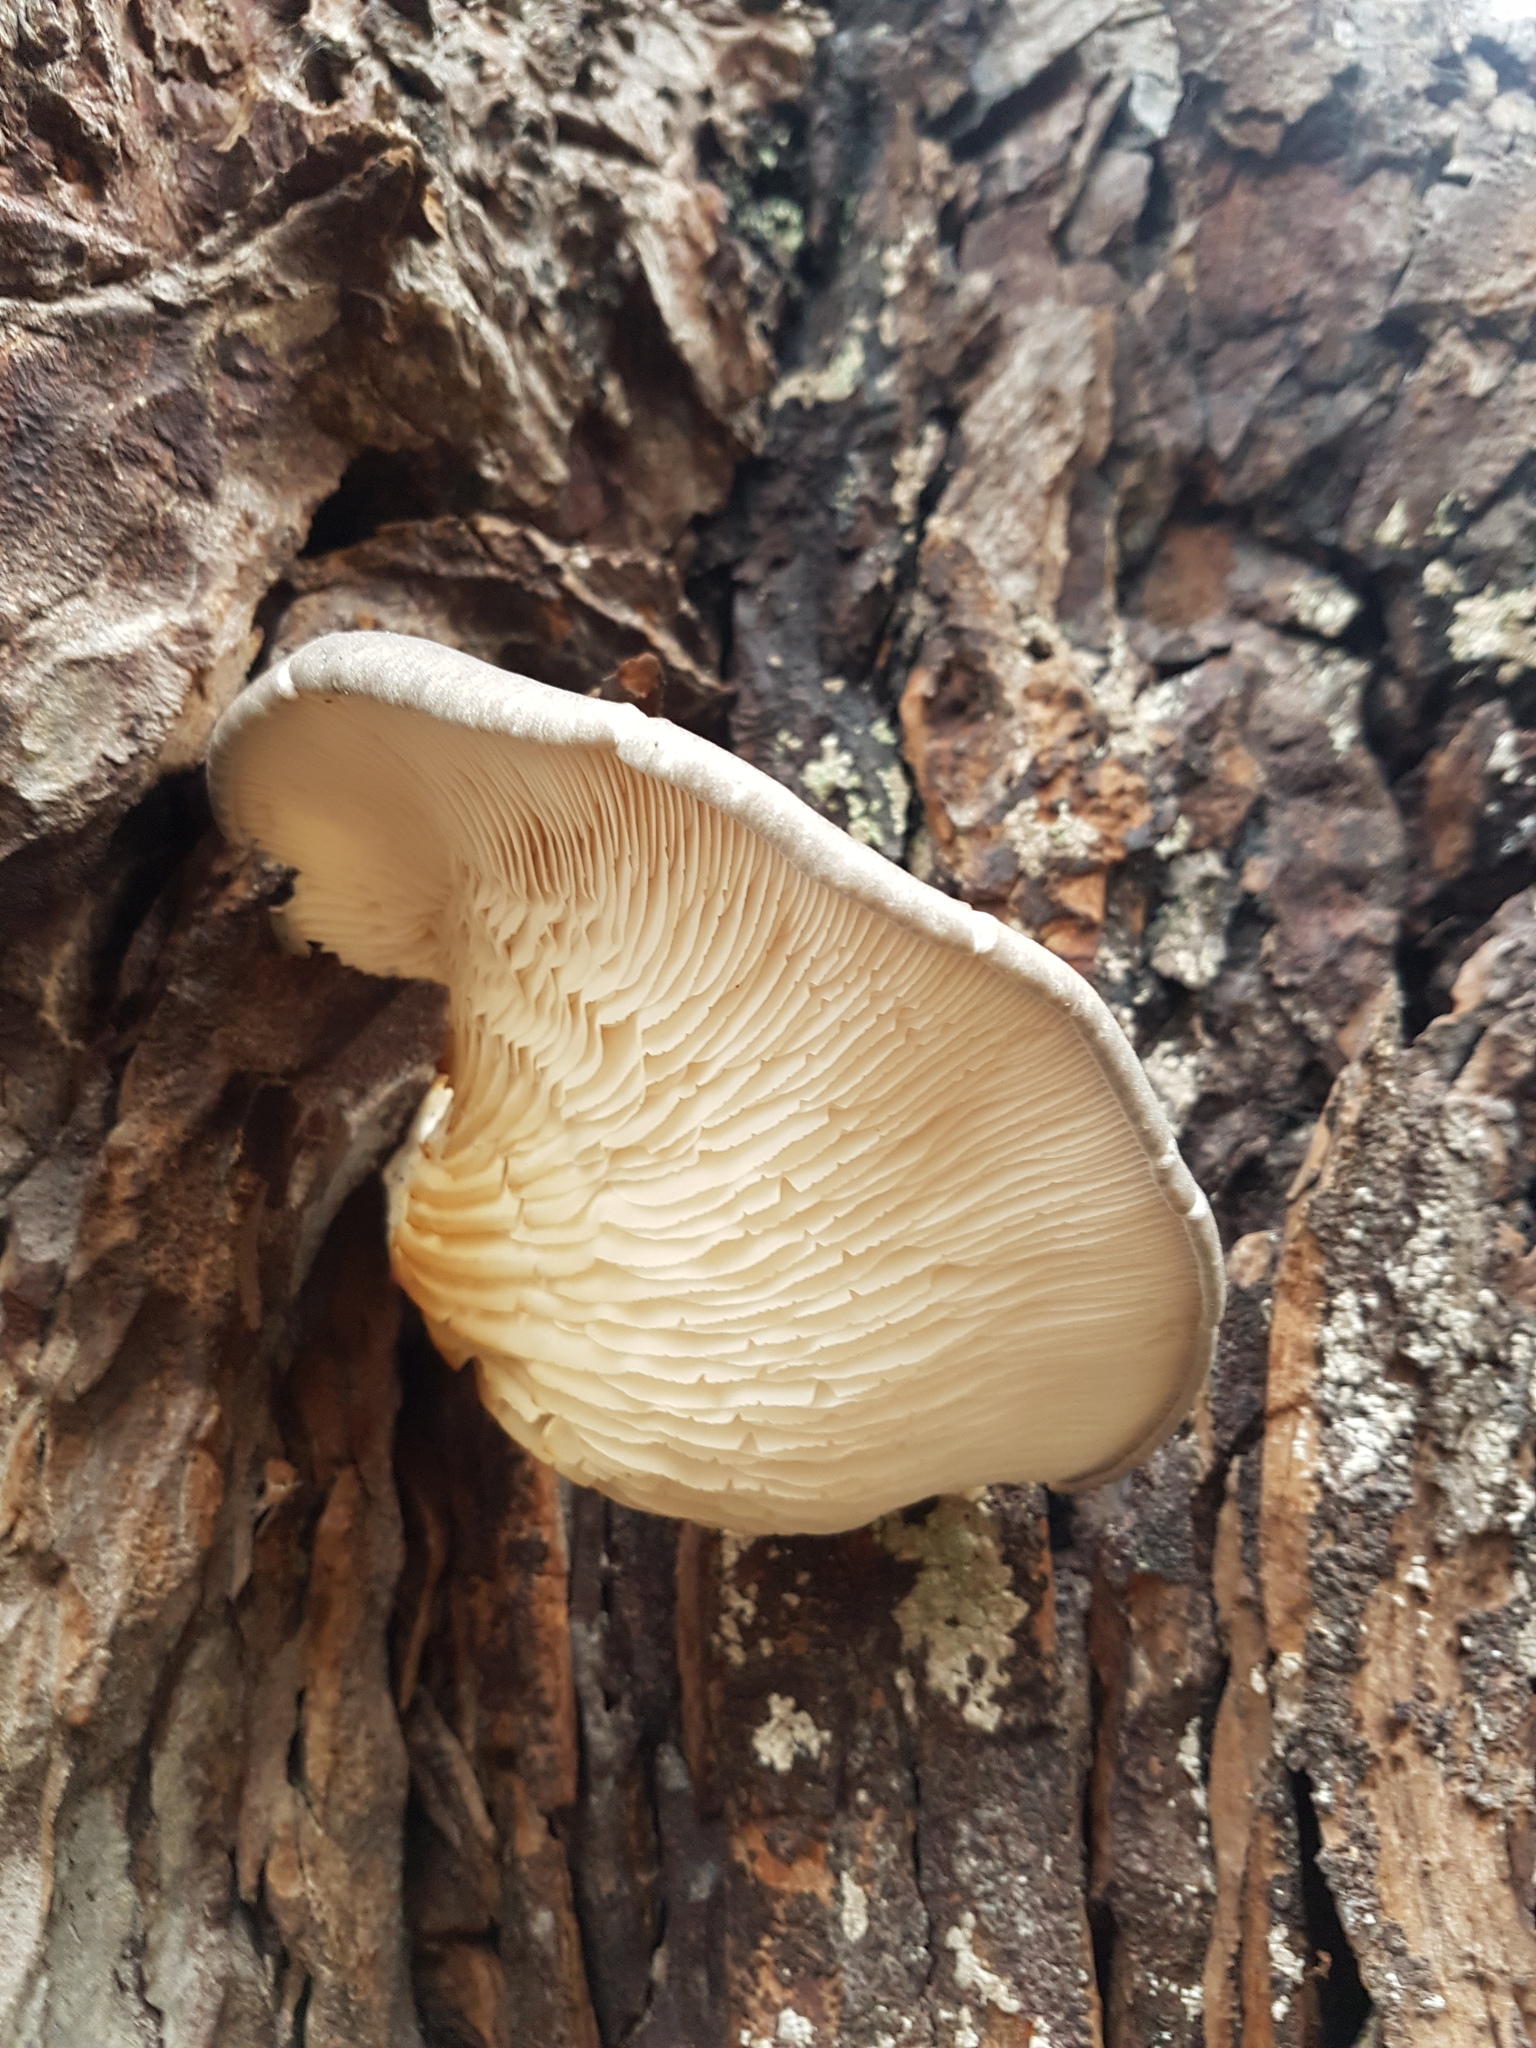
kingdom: Fungi
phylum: Basidiomycota
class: Agaricomycetes
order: Agaricales
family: Pleurotaceae
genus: Pleurotus
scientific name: Pleurotus ostreatus
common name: Oyster mushroom
